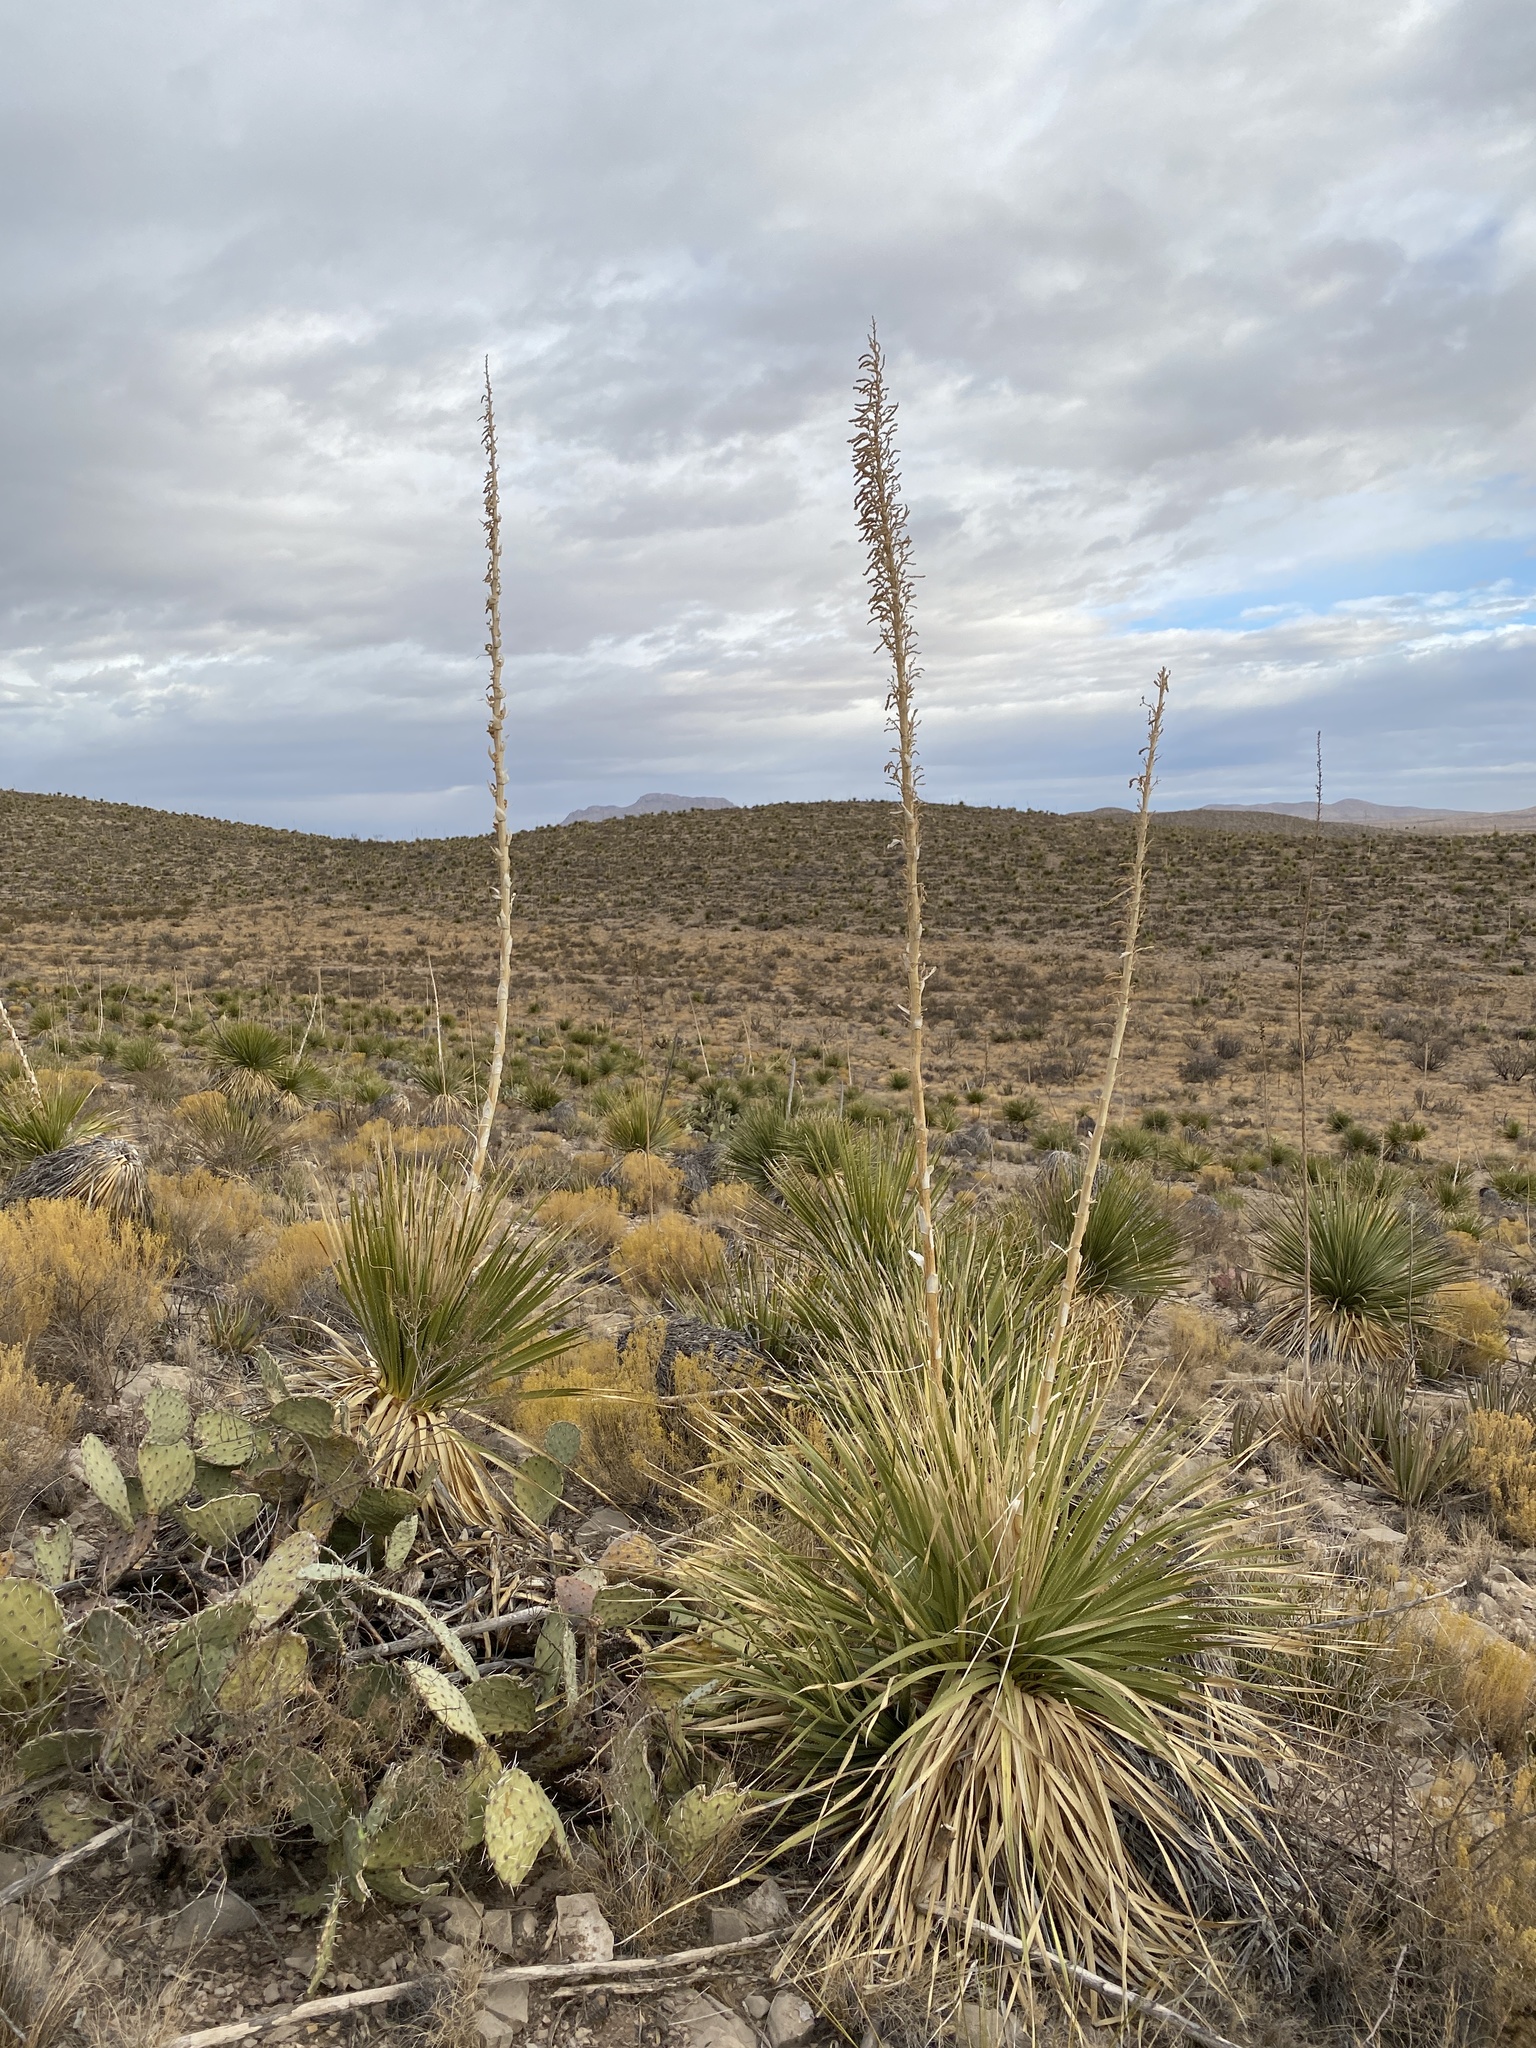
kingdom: Plantae
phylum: Tracheophyta
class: Liliopsida
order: Asparagales
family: Asparagaceae
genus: Dasylirion
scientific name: Dasylirion wheeleri
